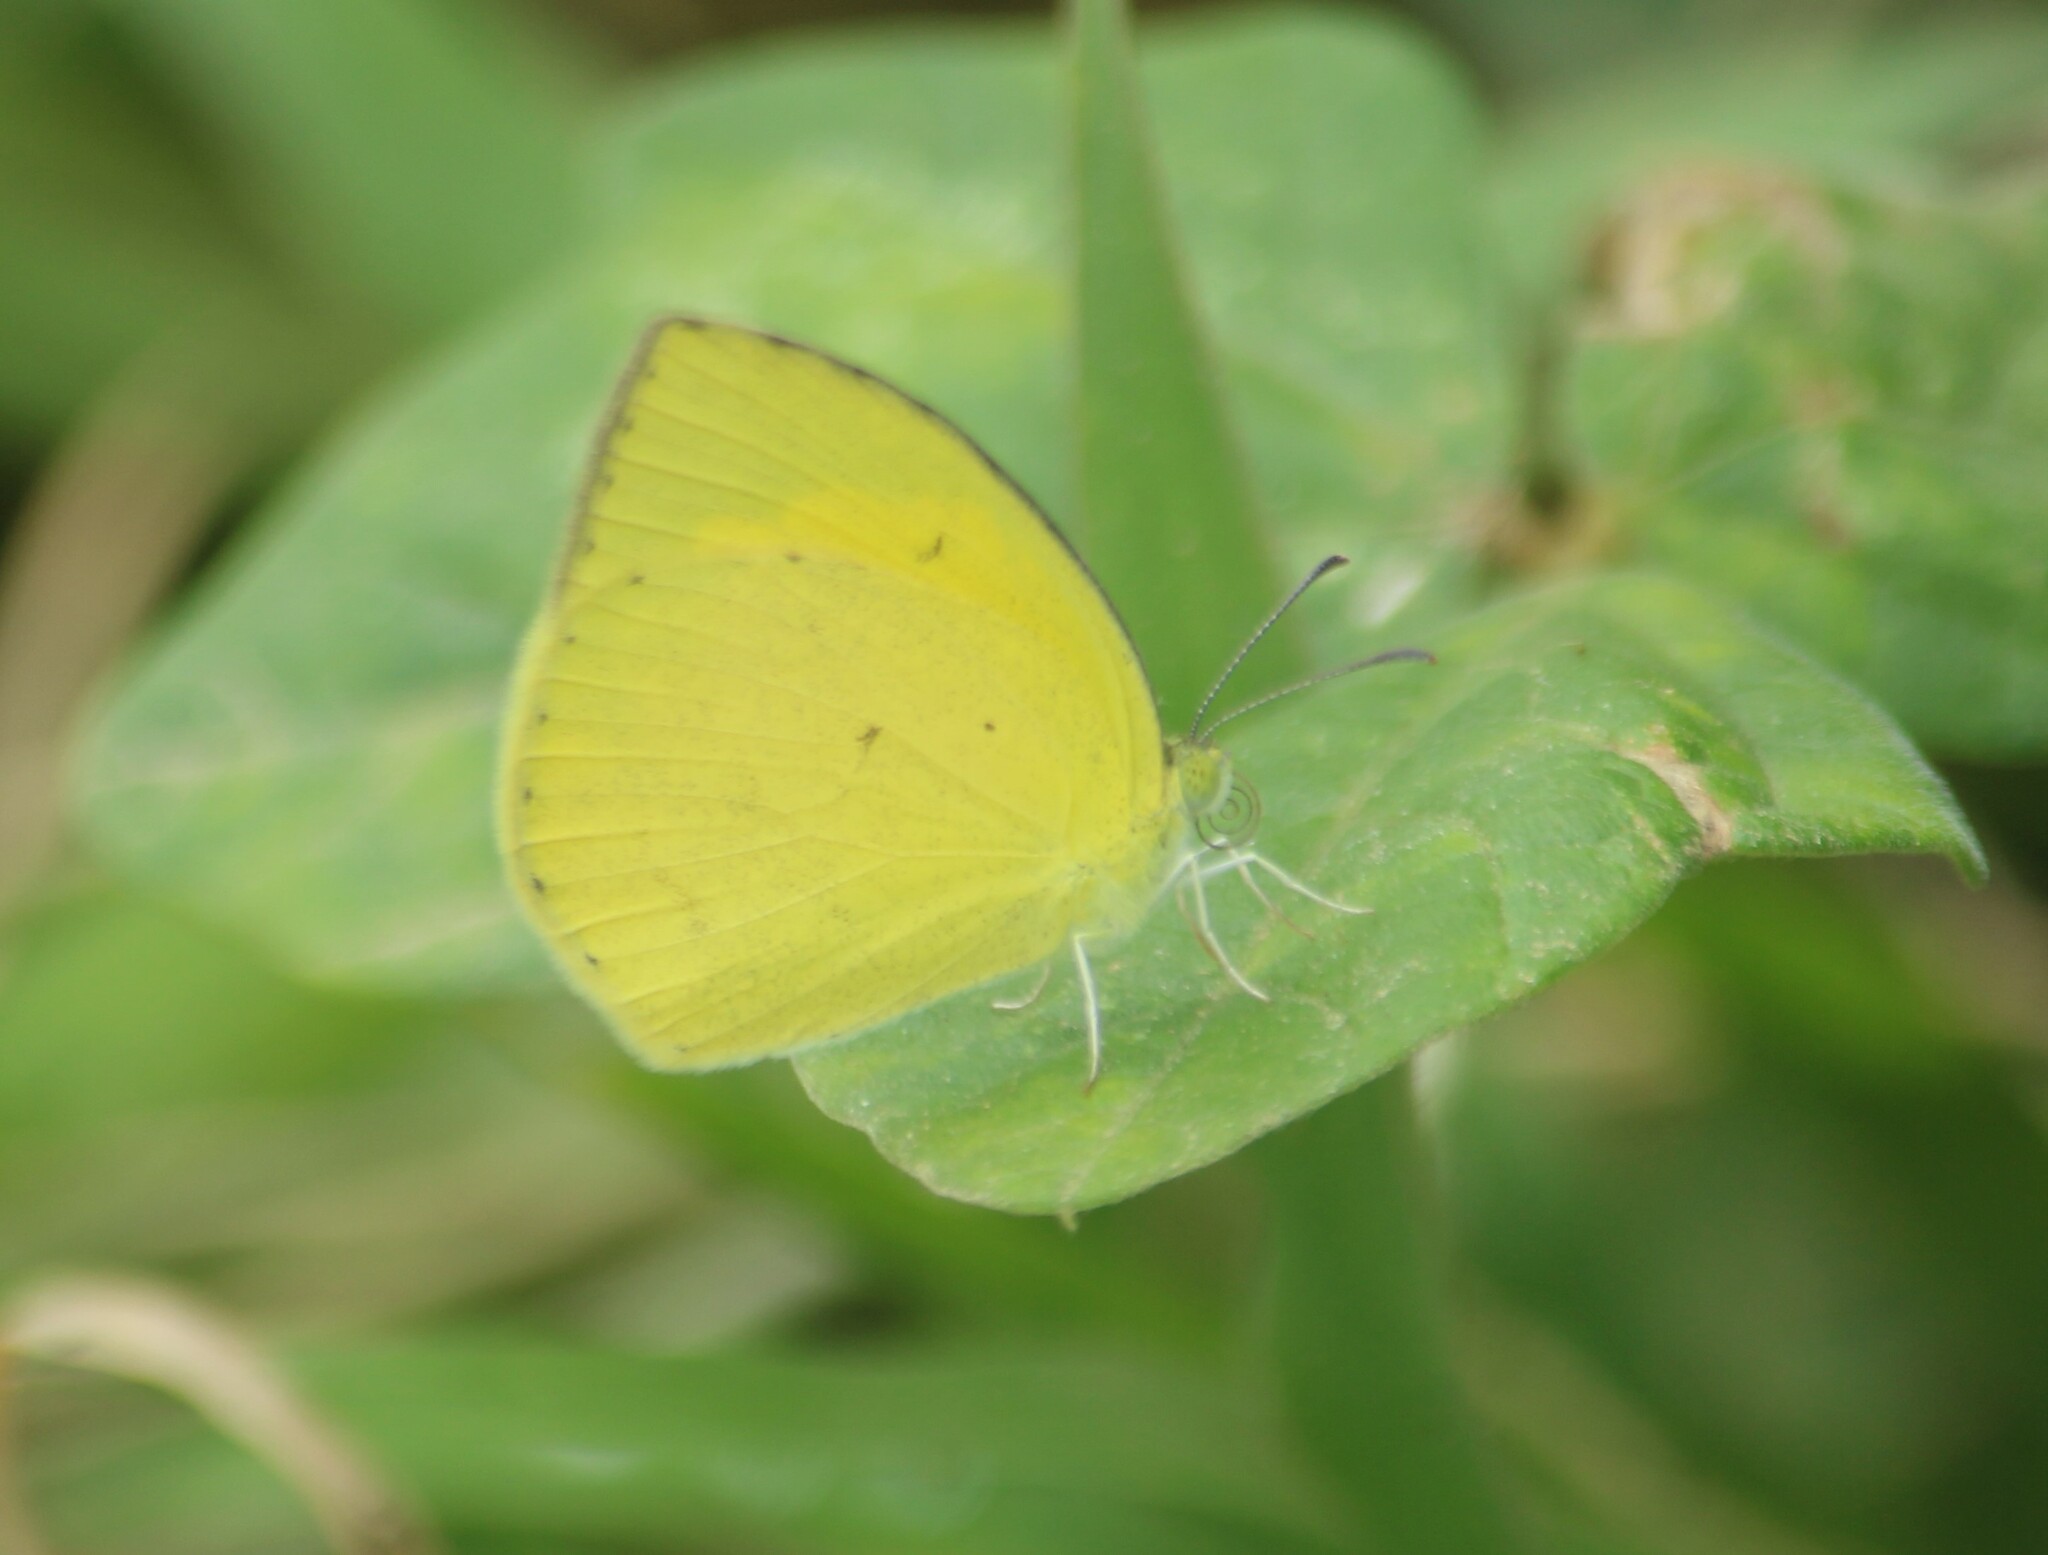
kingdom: Animalia
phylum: Arthropoda
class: Insecta
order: Lepidoptera
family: Pieridae
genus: Eurema
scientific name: Eurema laeta
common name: Spotless grass yellow
